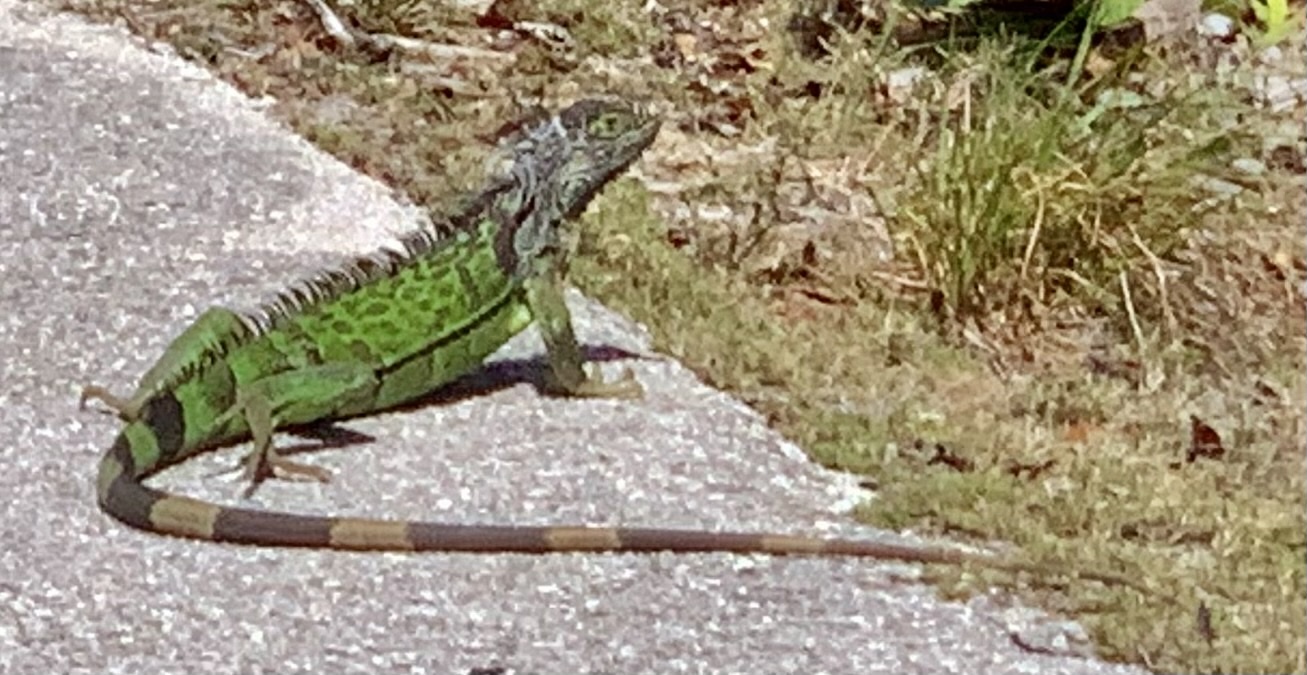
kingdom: Animalia
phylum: Chordata
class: Squamata
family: Iguanidae
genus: Iguana
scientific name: Iguana iguana
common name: Green iguana
